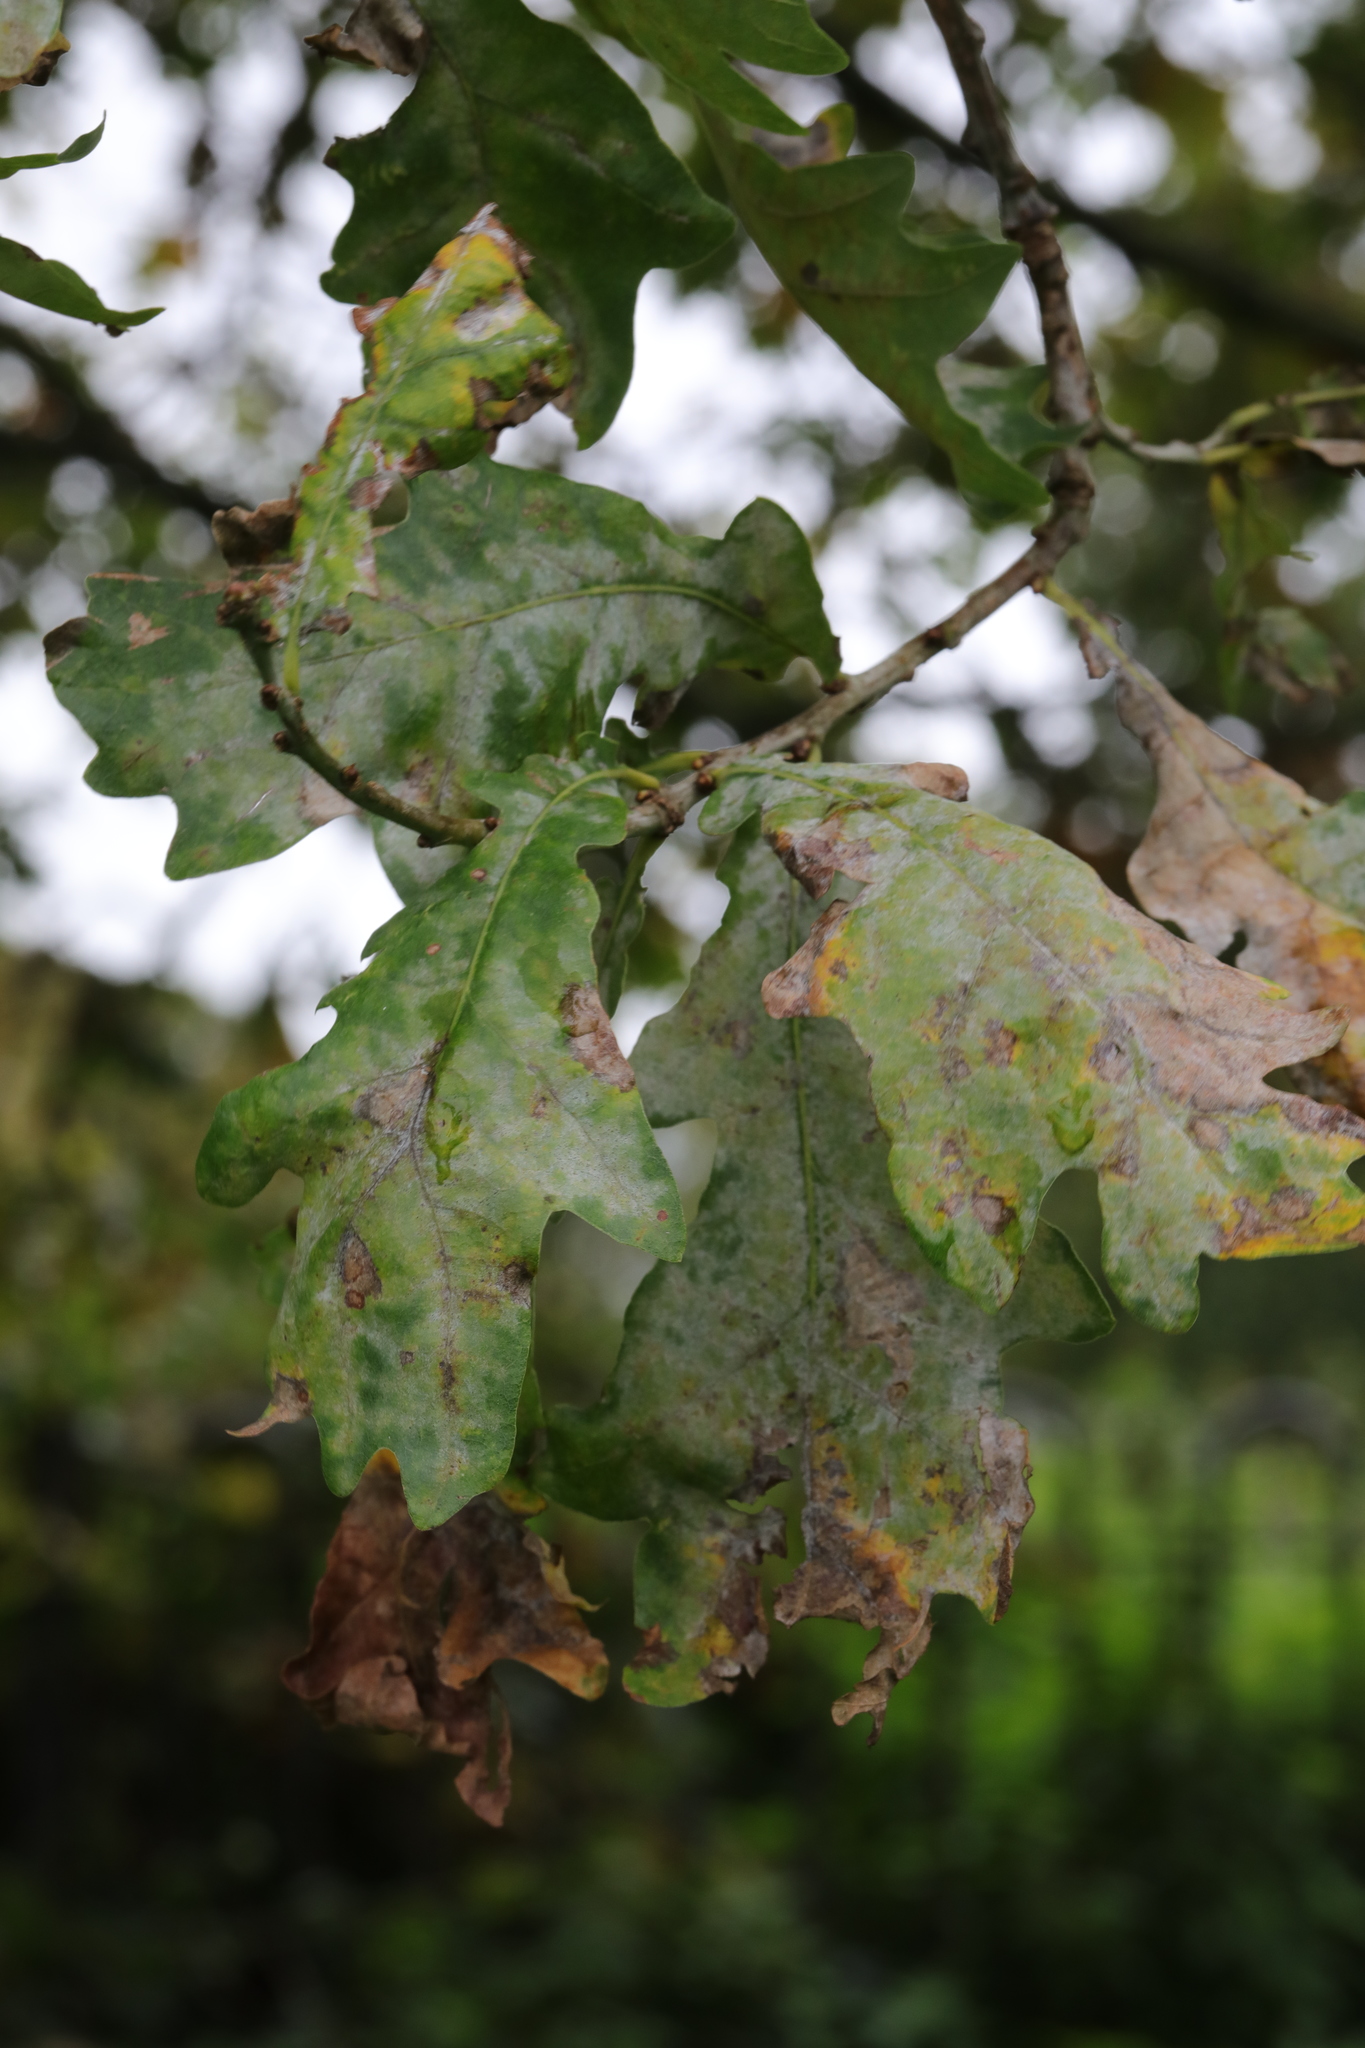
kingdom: Fungi
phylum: Ascomycota
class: Leotiomycetes
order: Helotiales
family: Erysiphaceae
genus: Erysiphe
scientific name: Erysiphe alphitoides
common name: Oak mildew
